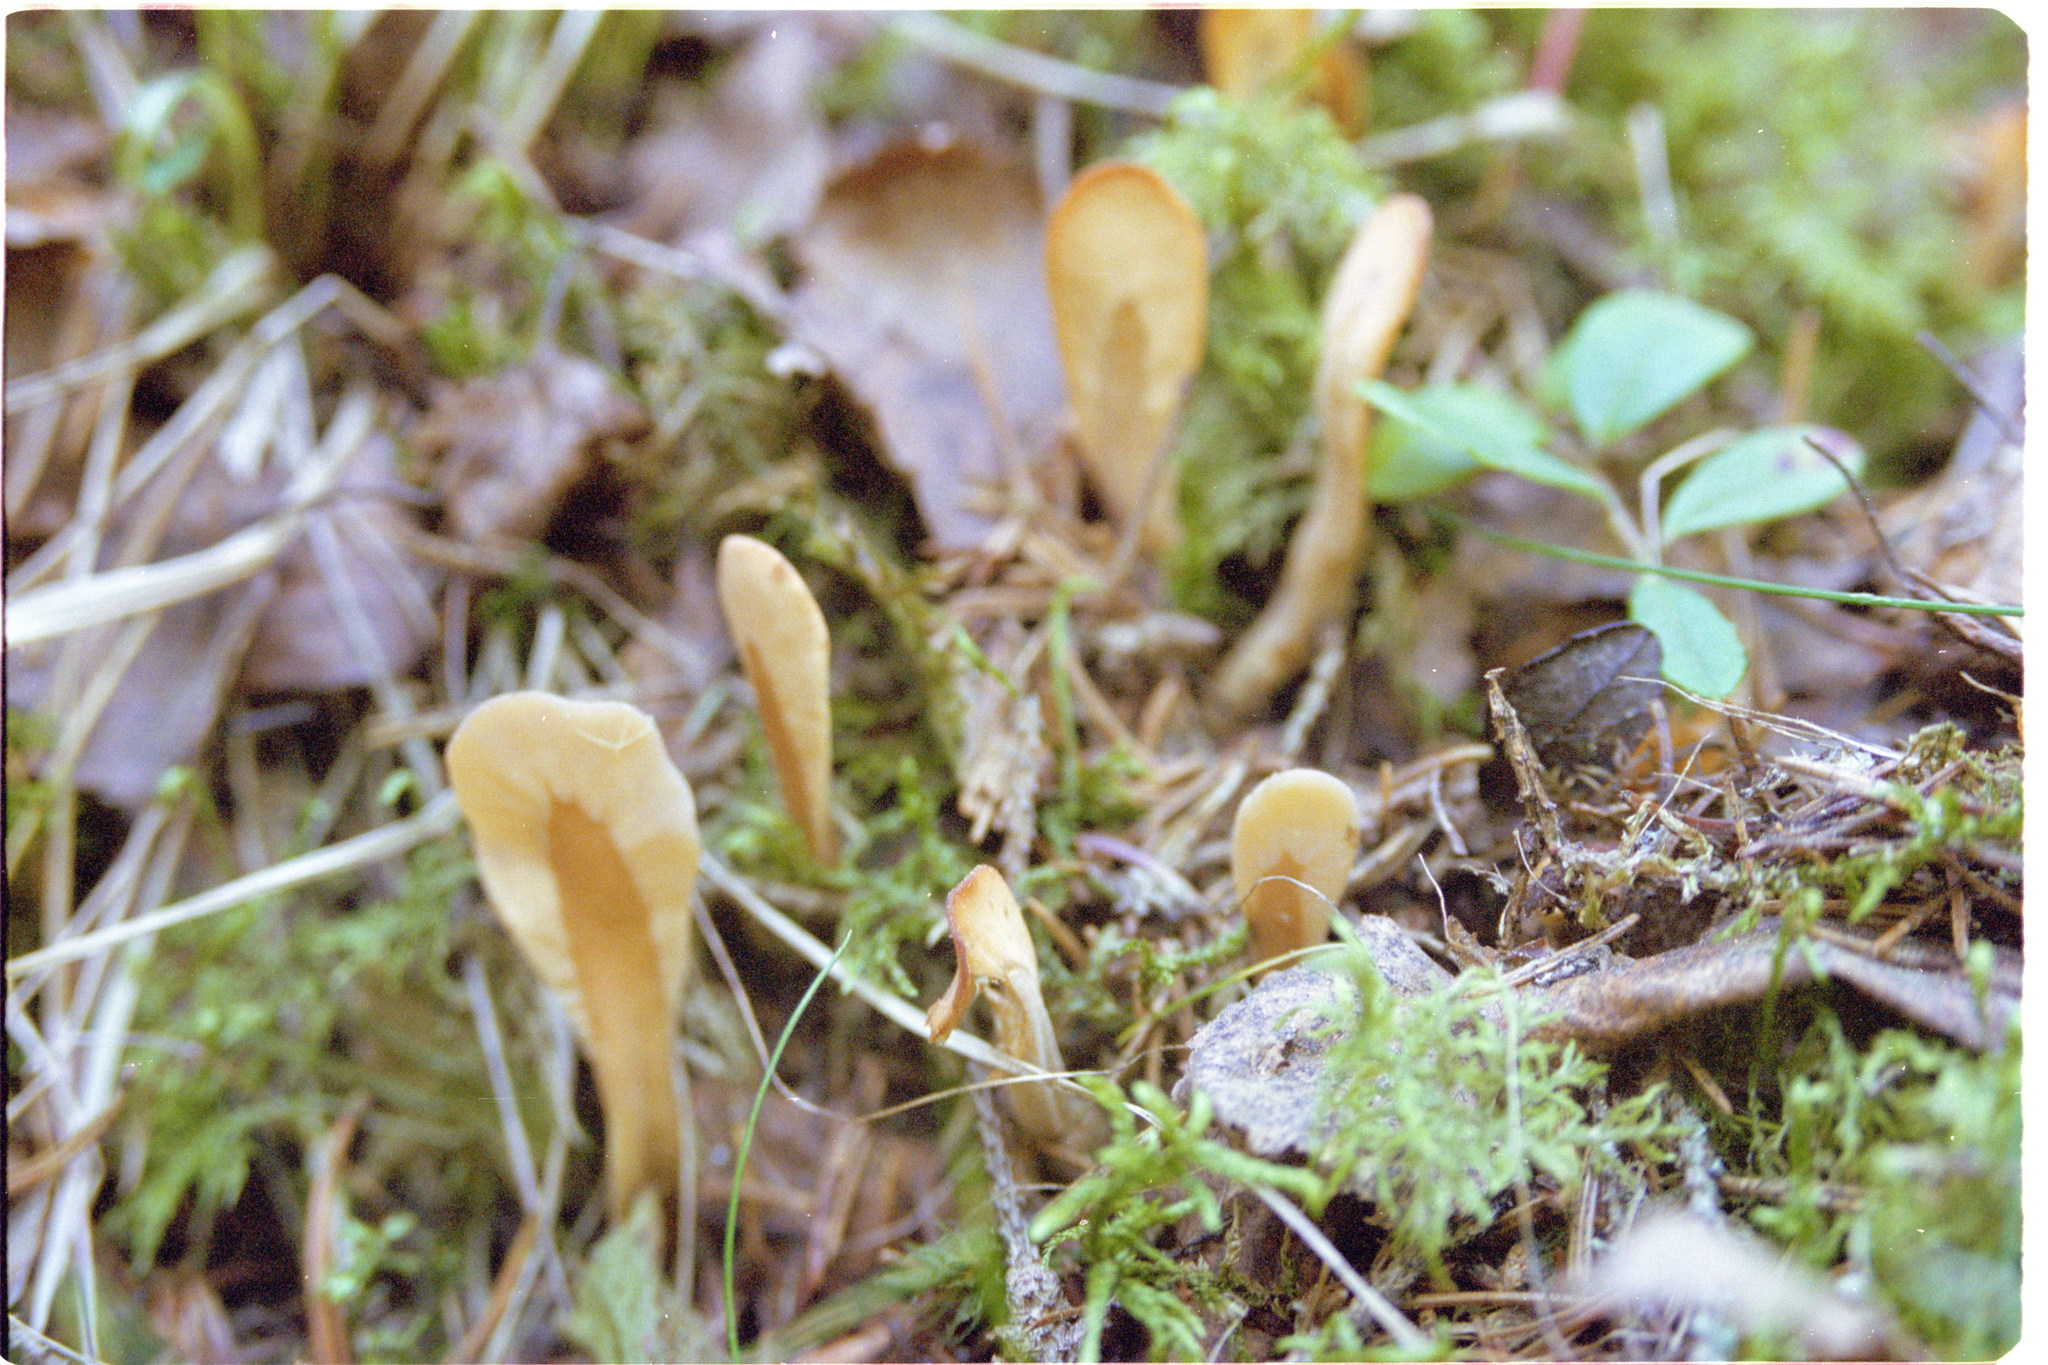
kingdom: Fungi
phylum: Ascomycota
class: Leotiomycetes
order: Rhytismatales
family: Cudoniaceae
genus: Spathularia
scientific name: Spathularia rufa
